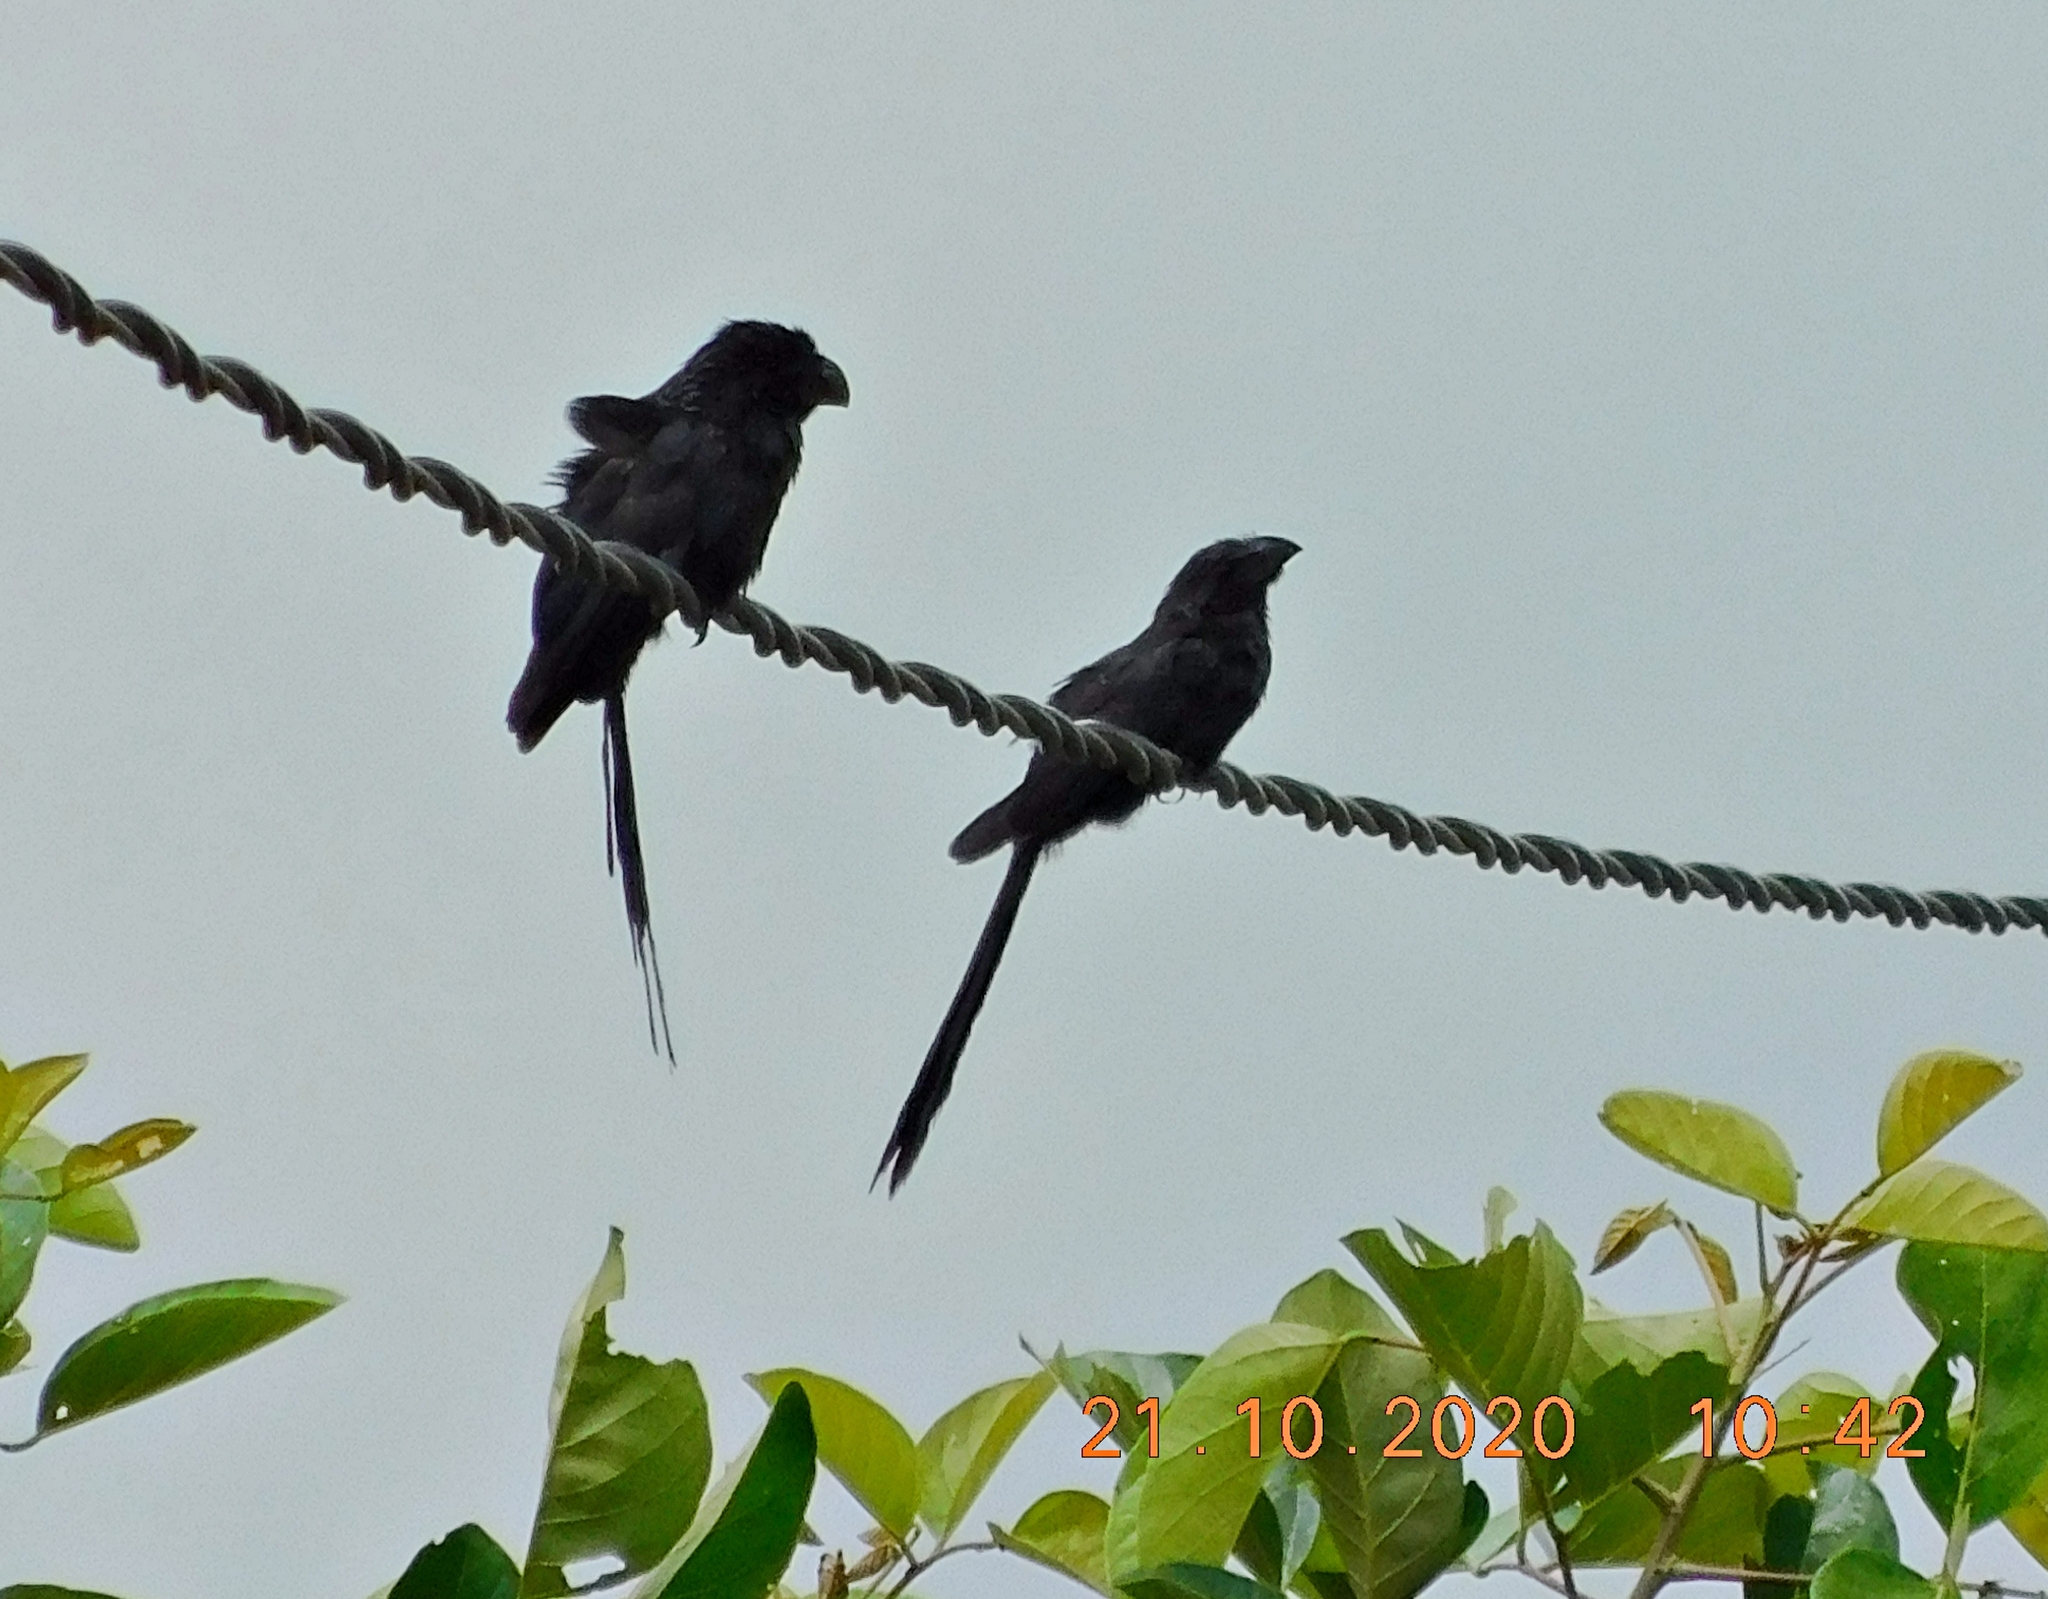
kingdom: Animalia
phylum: Chordata
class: Aves
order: Cuculiformes
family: Cuculidae
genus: Crotophaga
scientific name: Crotophaga sulcirostris
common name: Groove-billed ani
